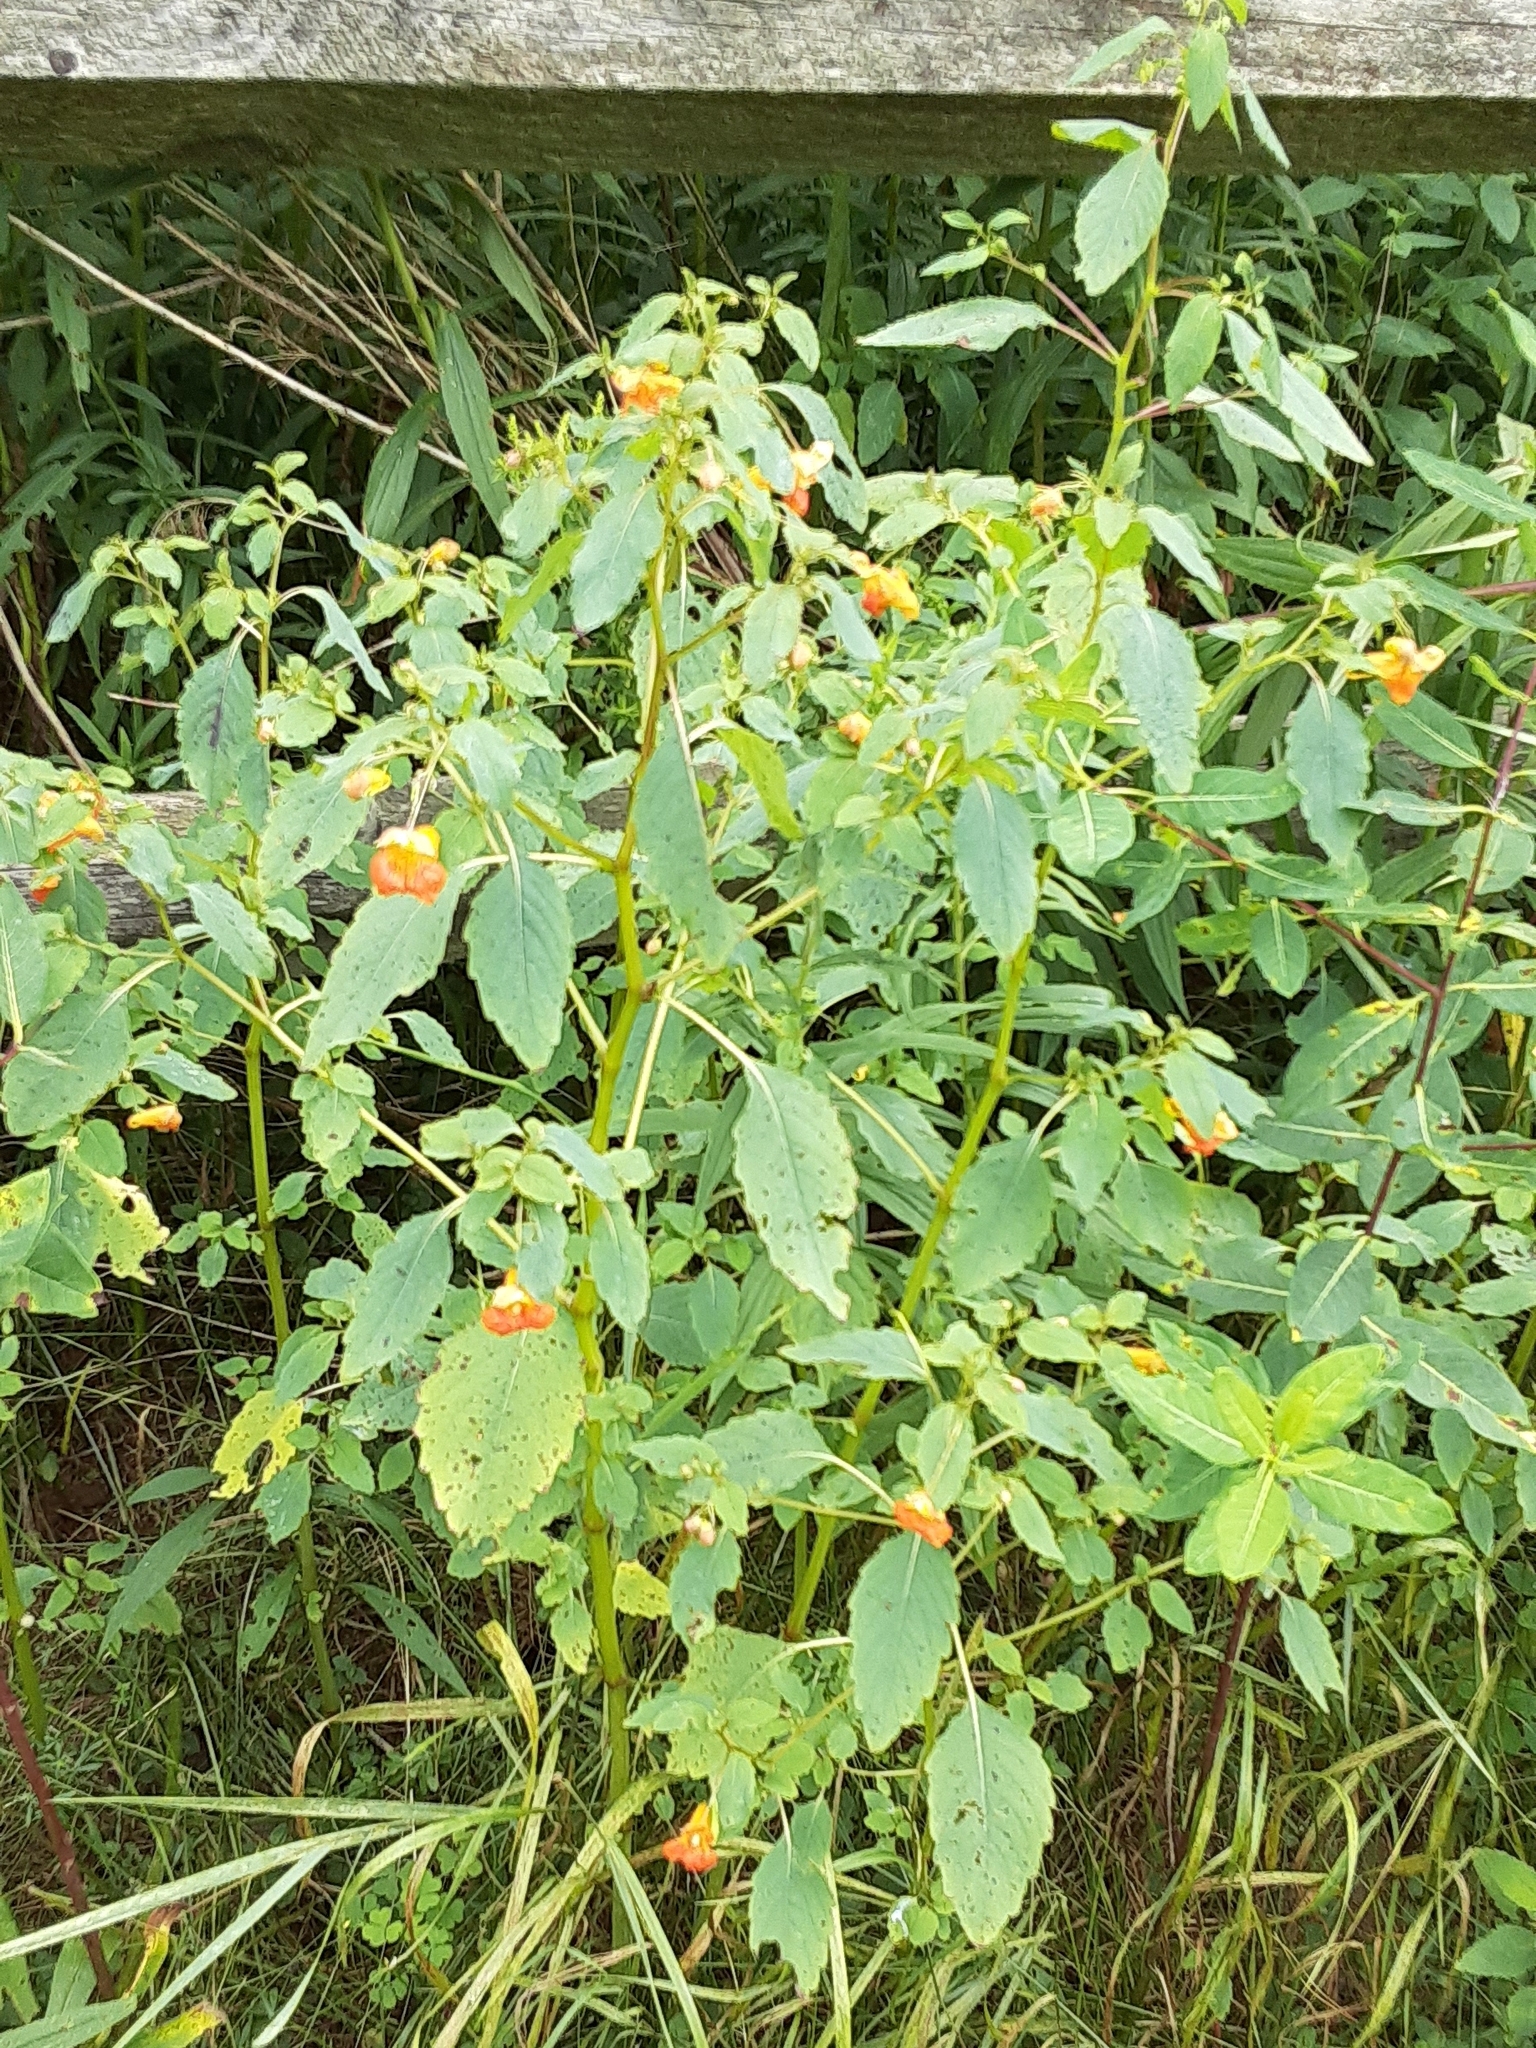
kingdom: Plantae
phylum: Tracheophyta
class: Magnoliopsida
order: Ericales
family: Balsaminaceae
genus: Impatiens
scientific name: Impatiens capensis
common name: Orange balsam
